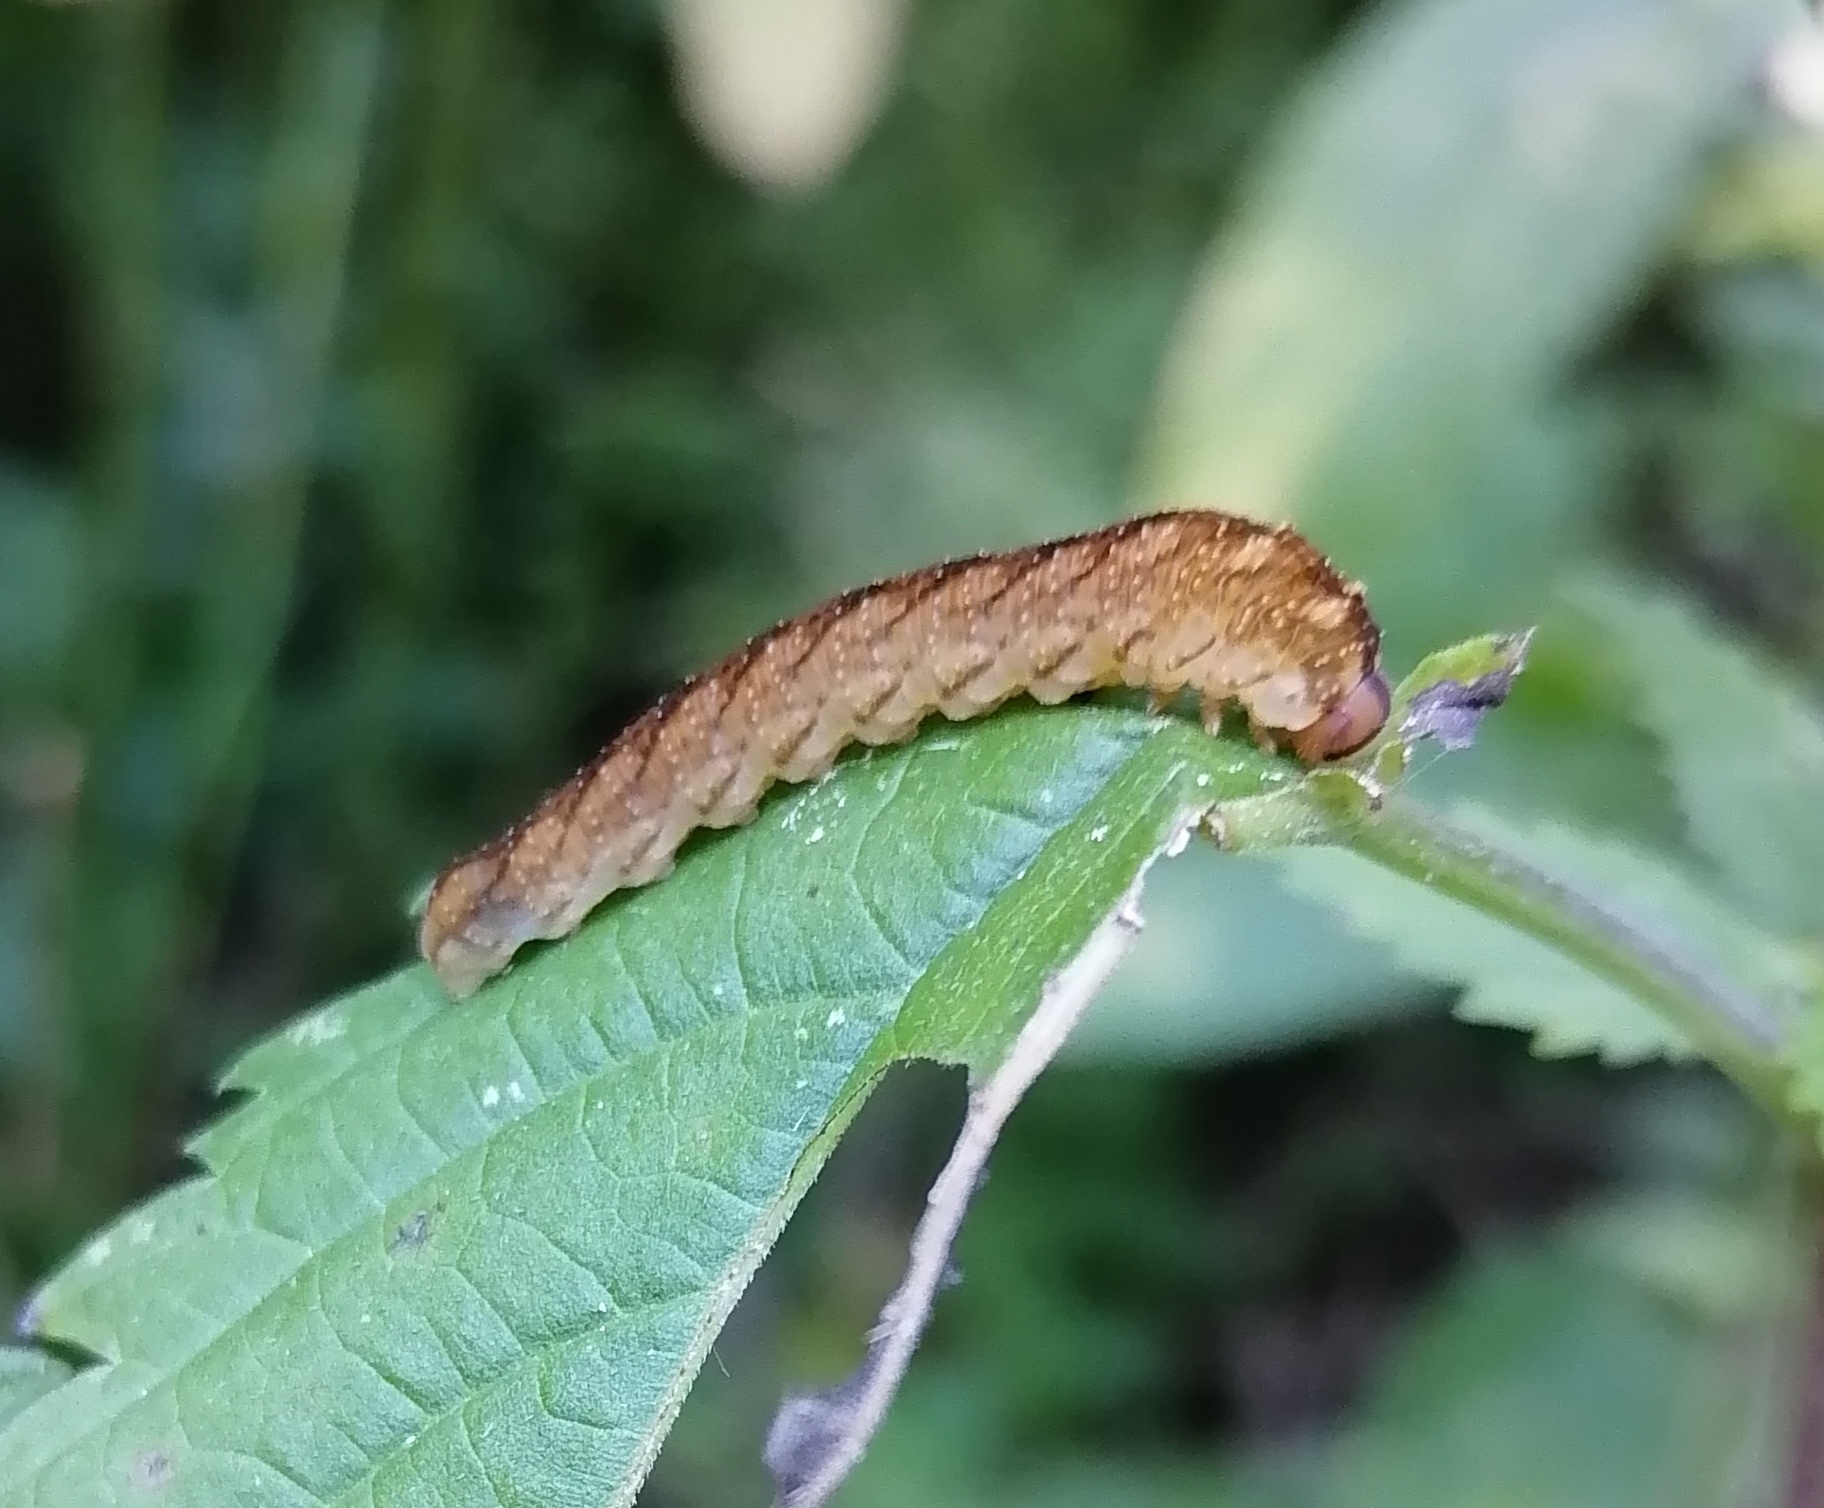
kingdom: Animalia
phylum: Arthropoda
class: Insecta
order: Hymenoptera
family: Tenthredinidae
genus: Tenthredo
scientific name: Tenthredo campestris
